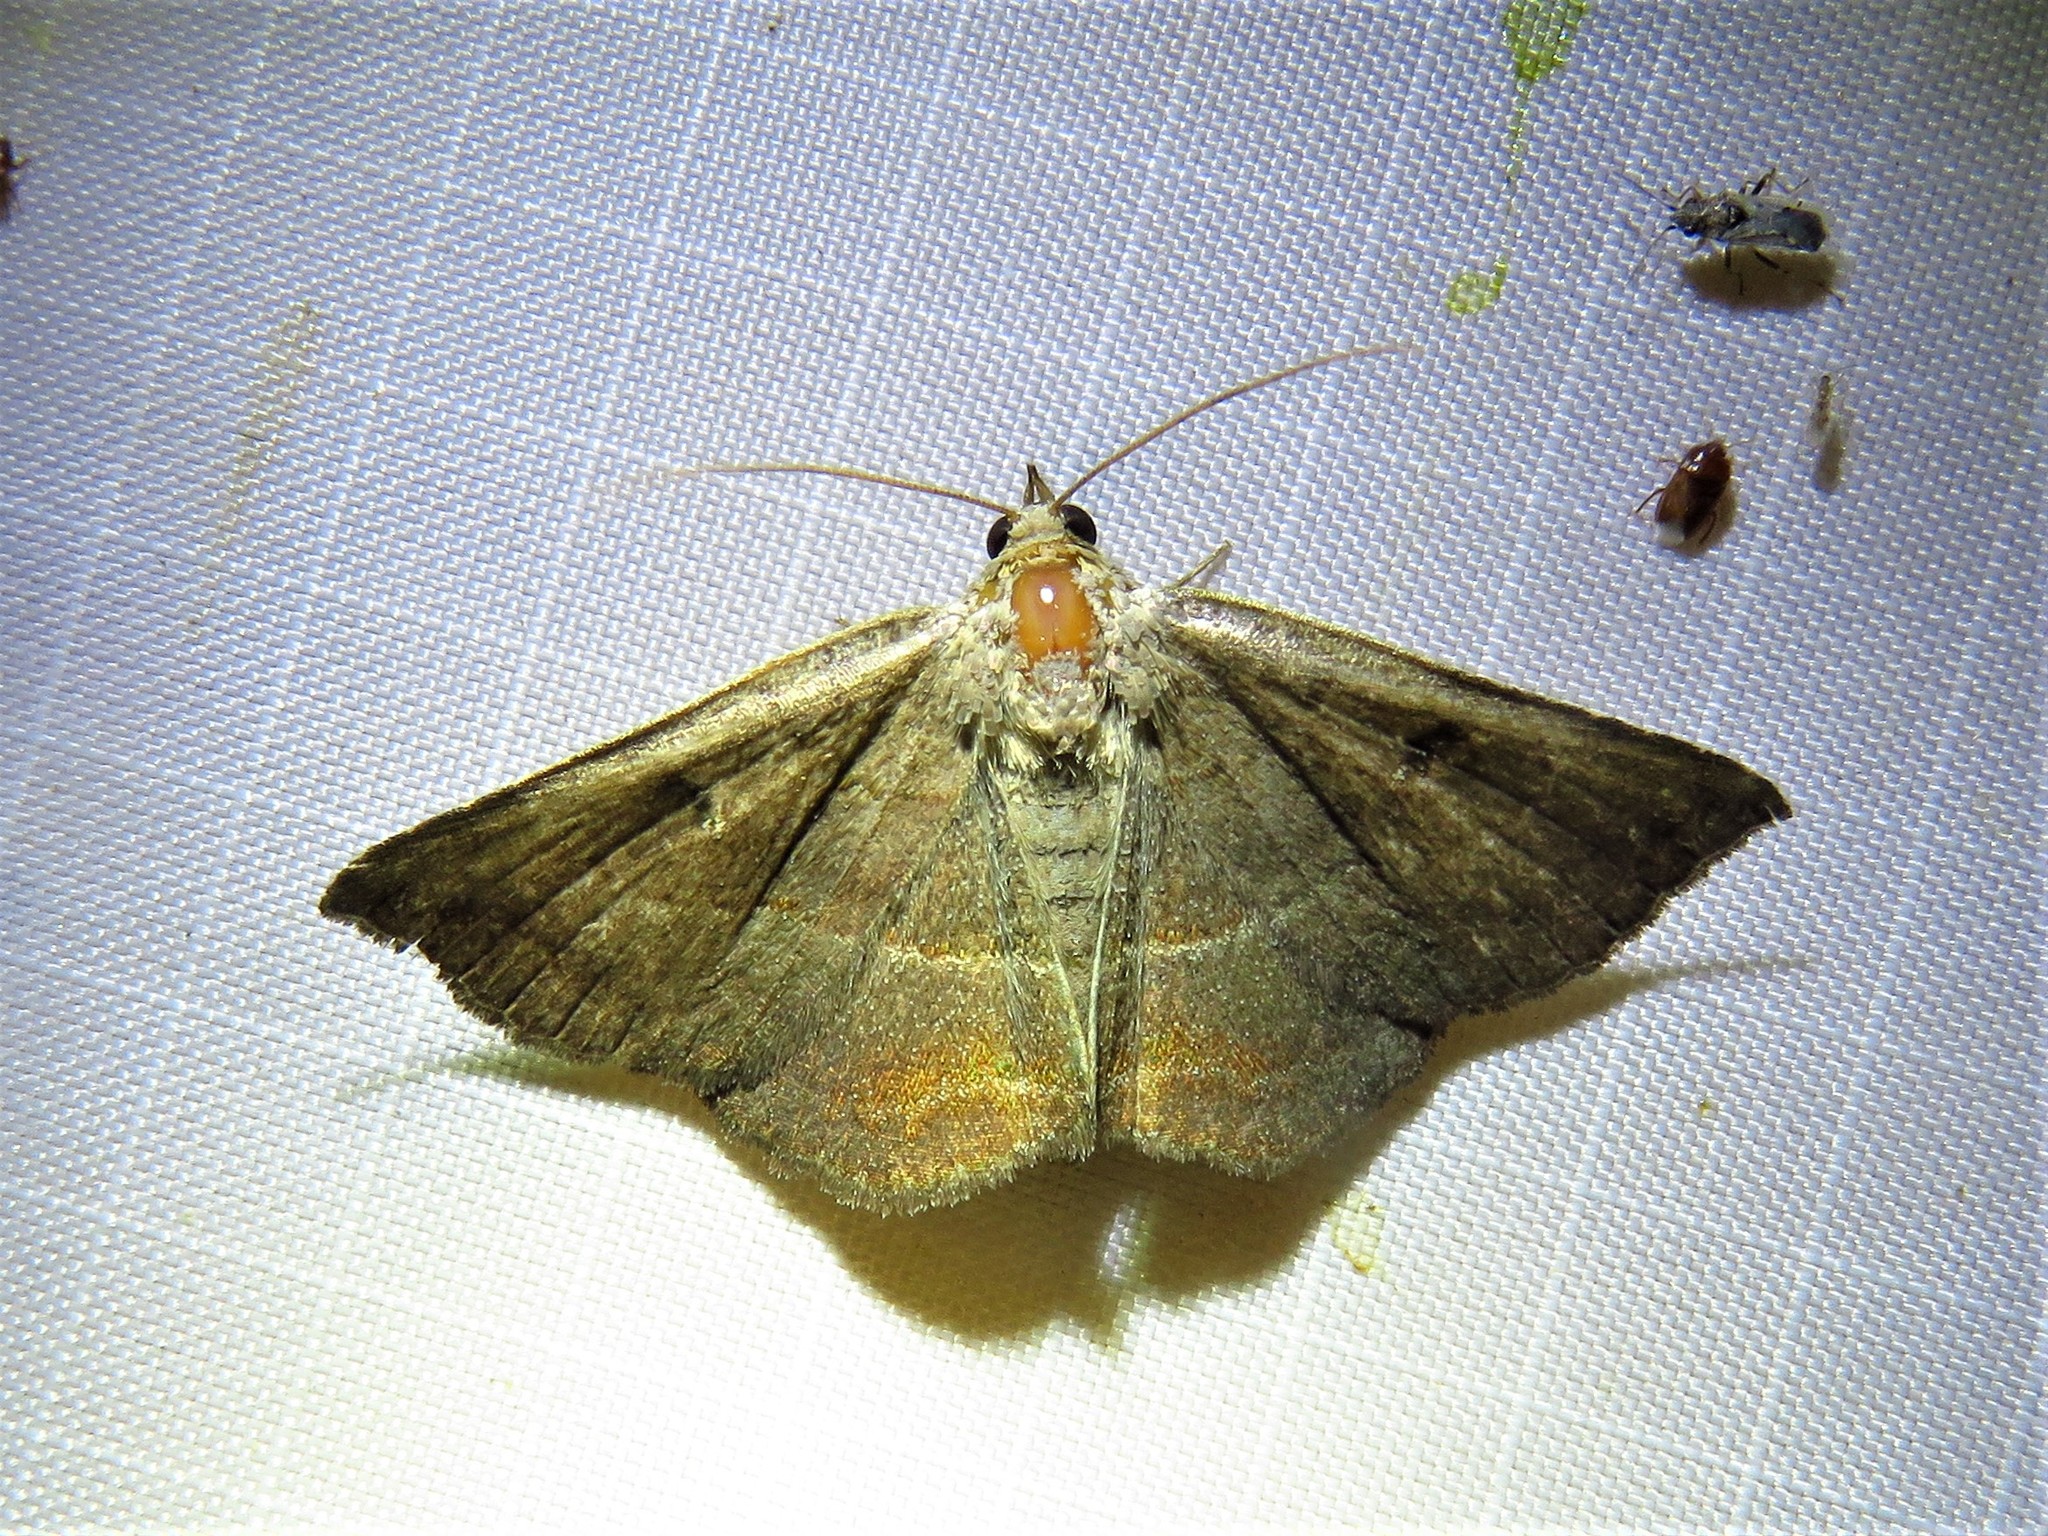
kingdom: Animalia
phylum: Arthropoda
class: Insecta
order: Lepidoptera
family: Erebidae
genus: Lesmone
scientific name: Lesmone detrahens
